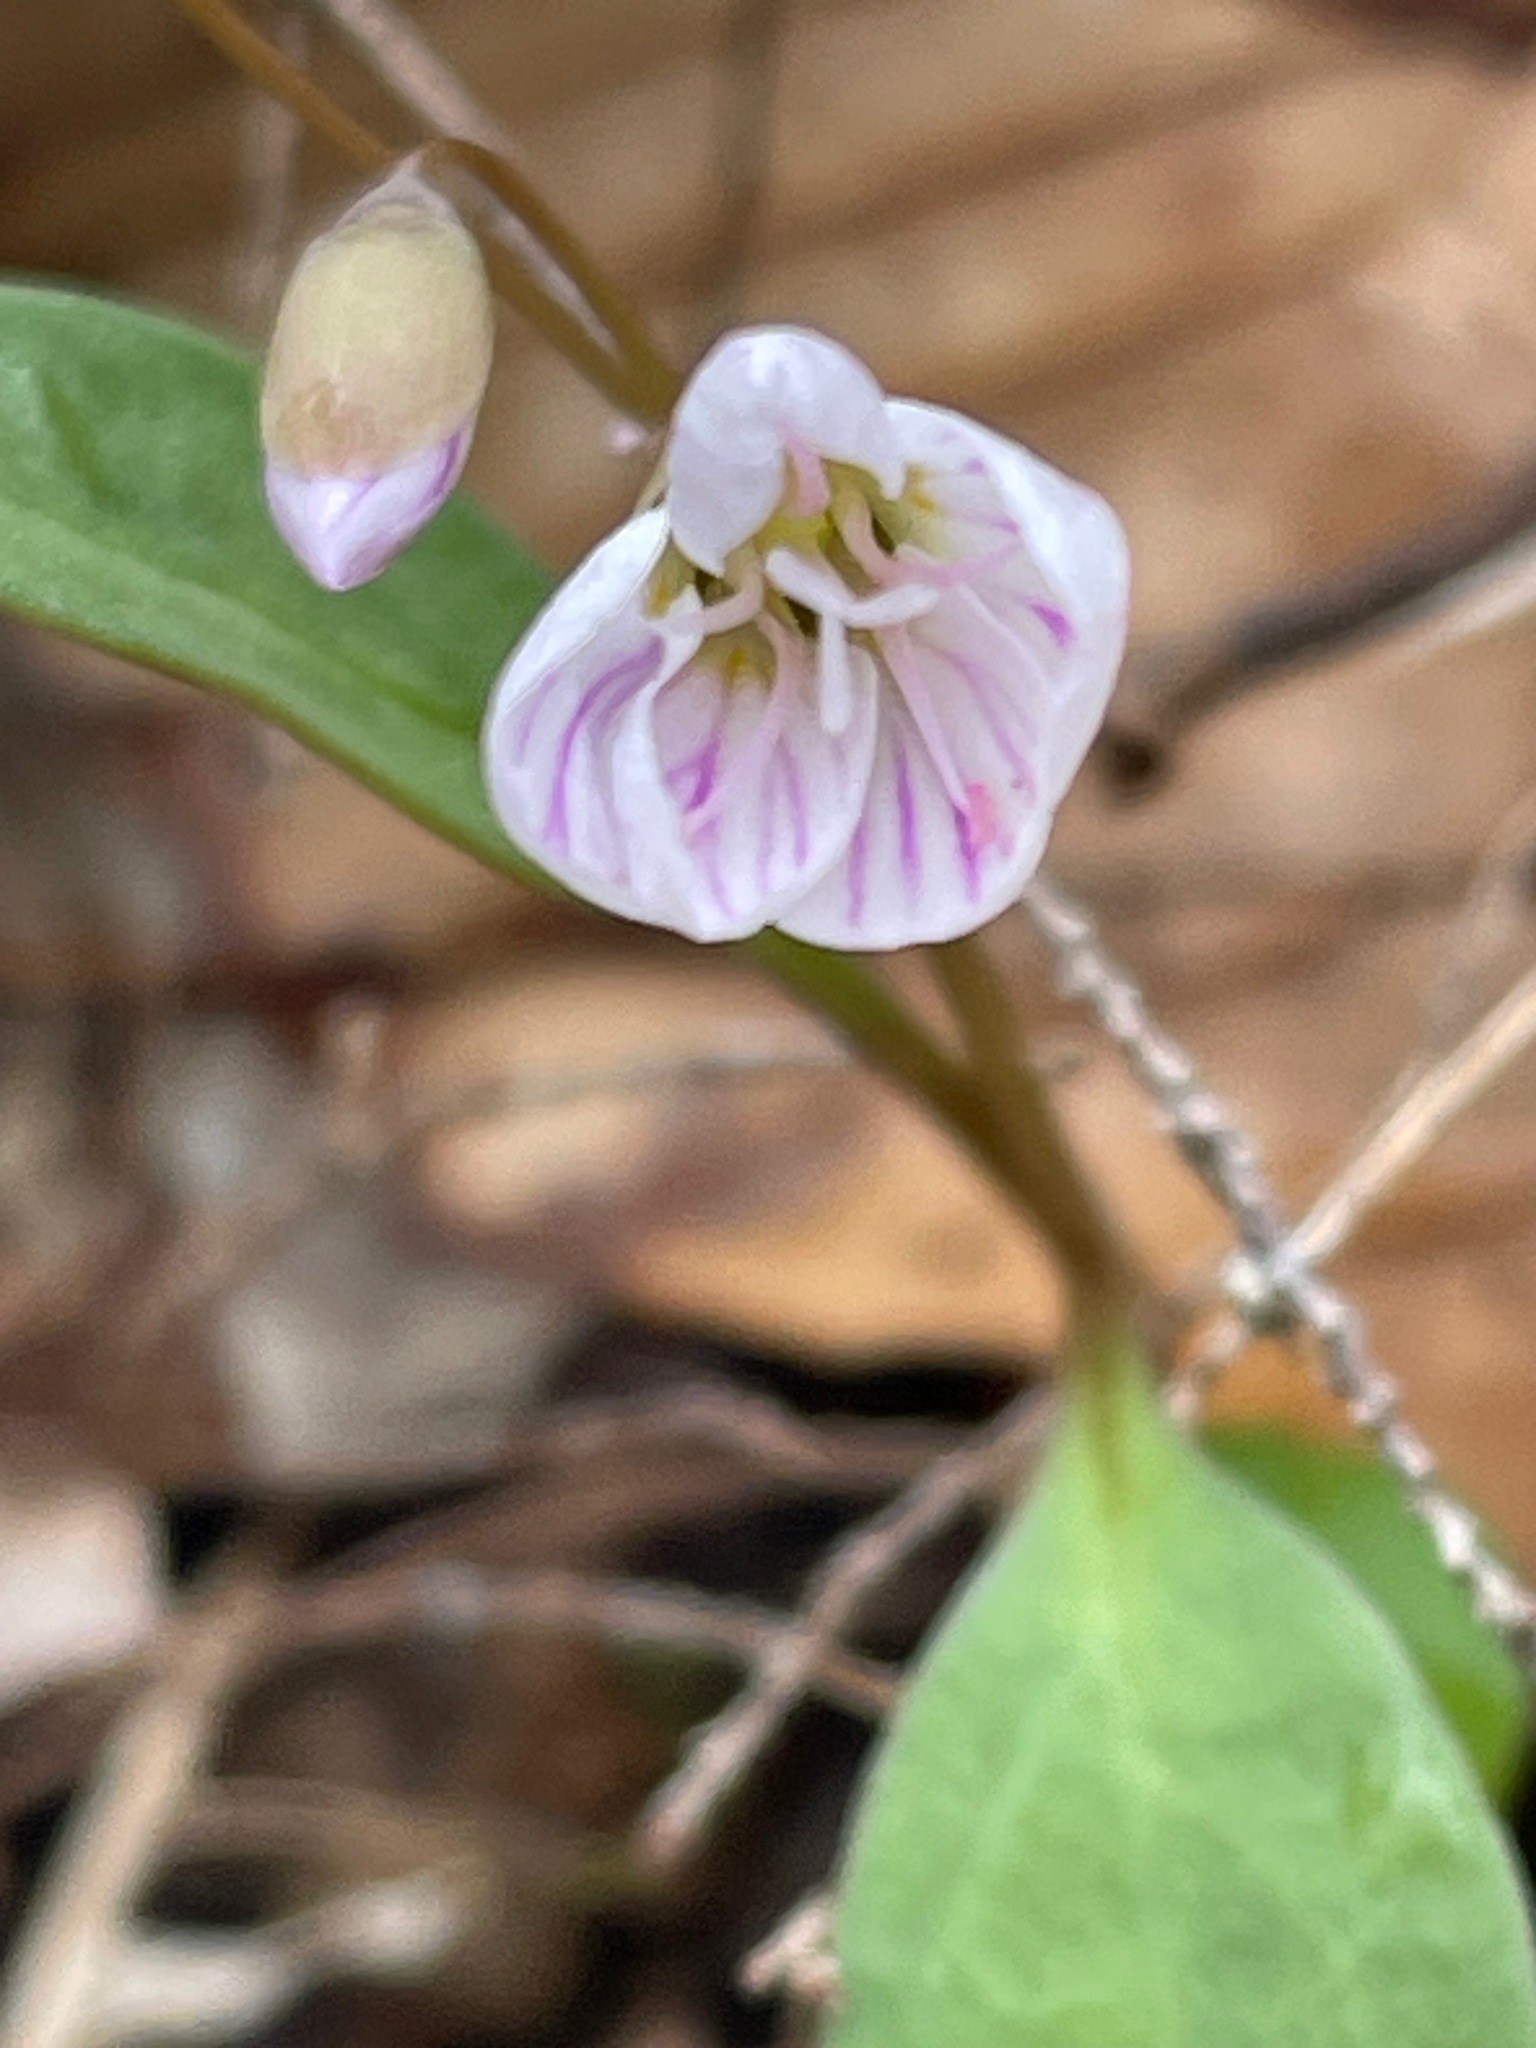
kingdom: Plantae
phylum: Tracheophyta
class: Magnoliopsida
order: Caryophyllales
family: Montiaceae
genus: Claytonia
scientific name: Claytonia caroliniana
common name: Carolina spring beauty
